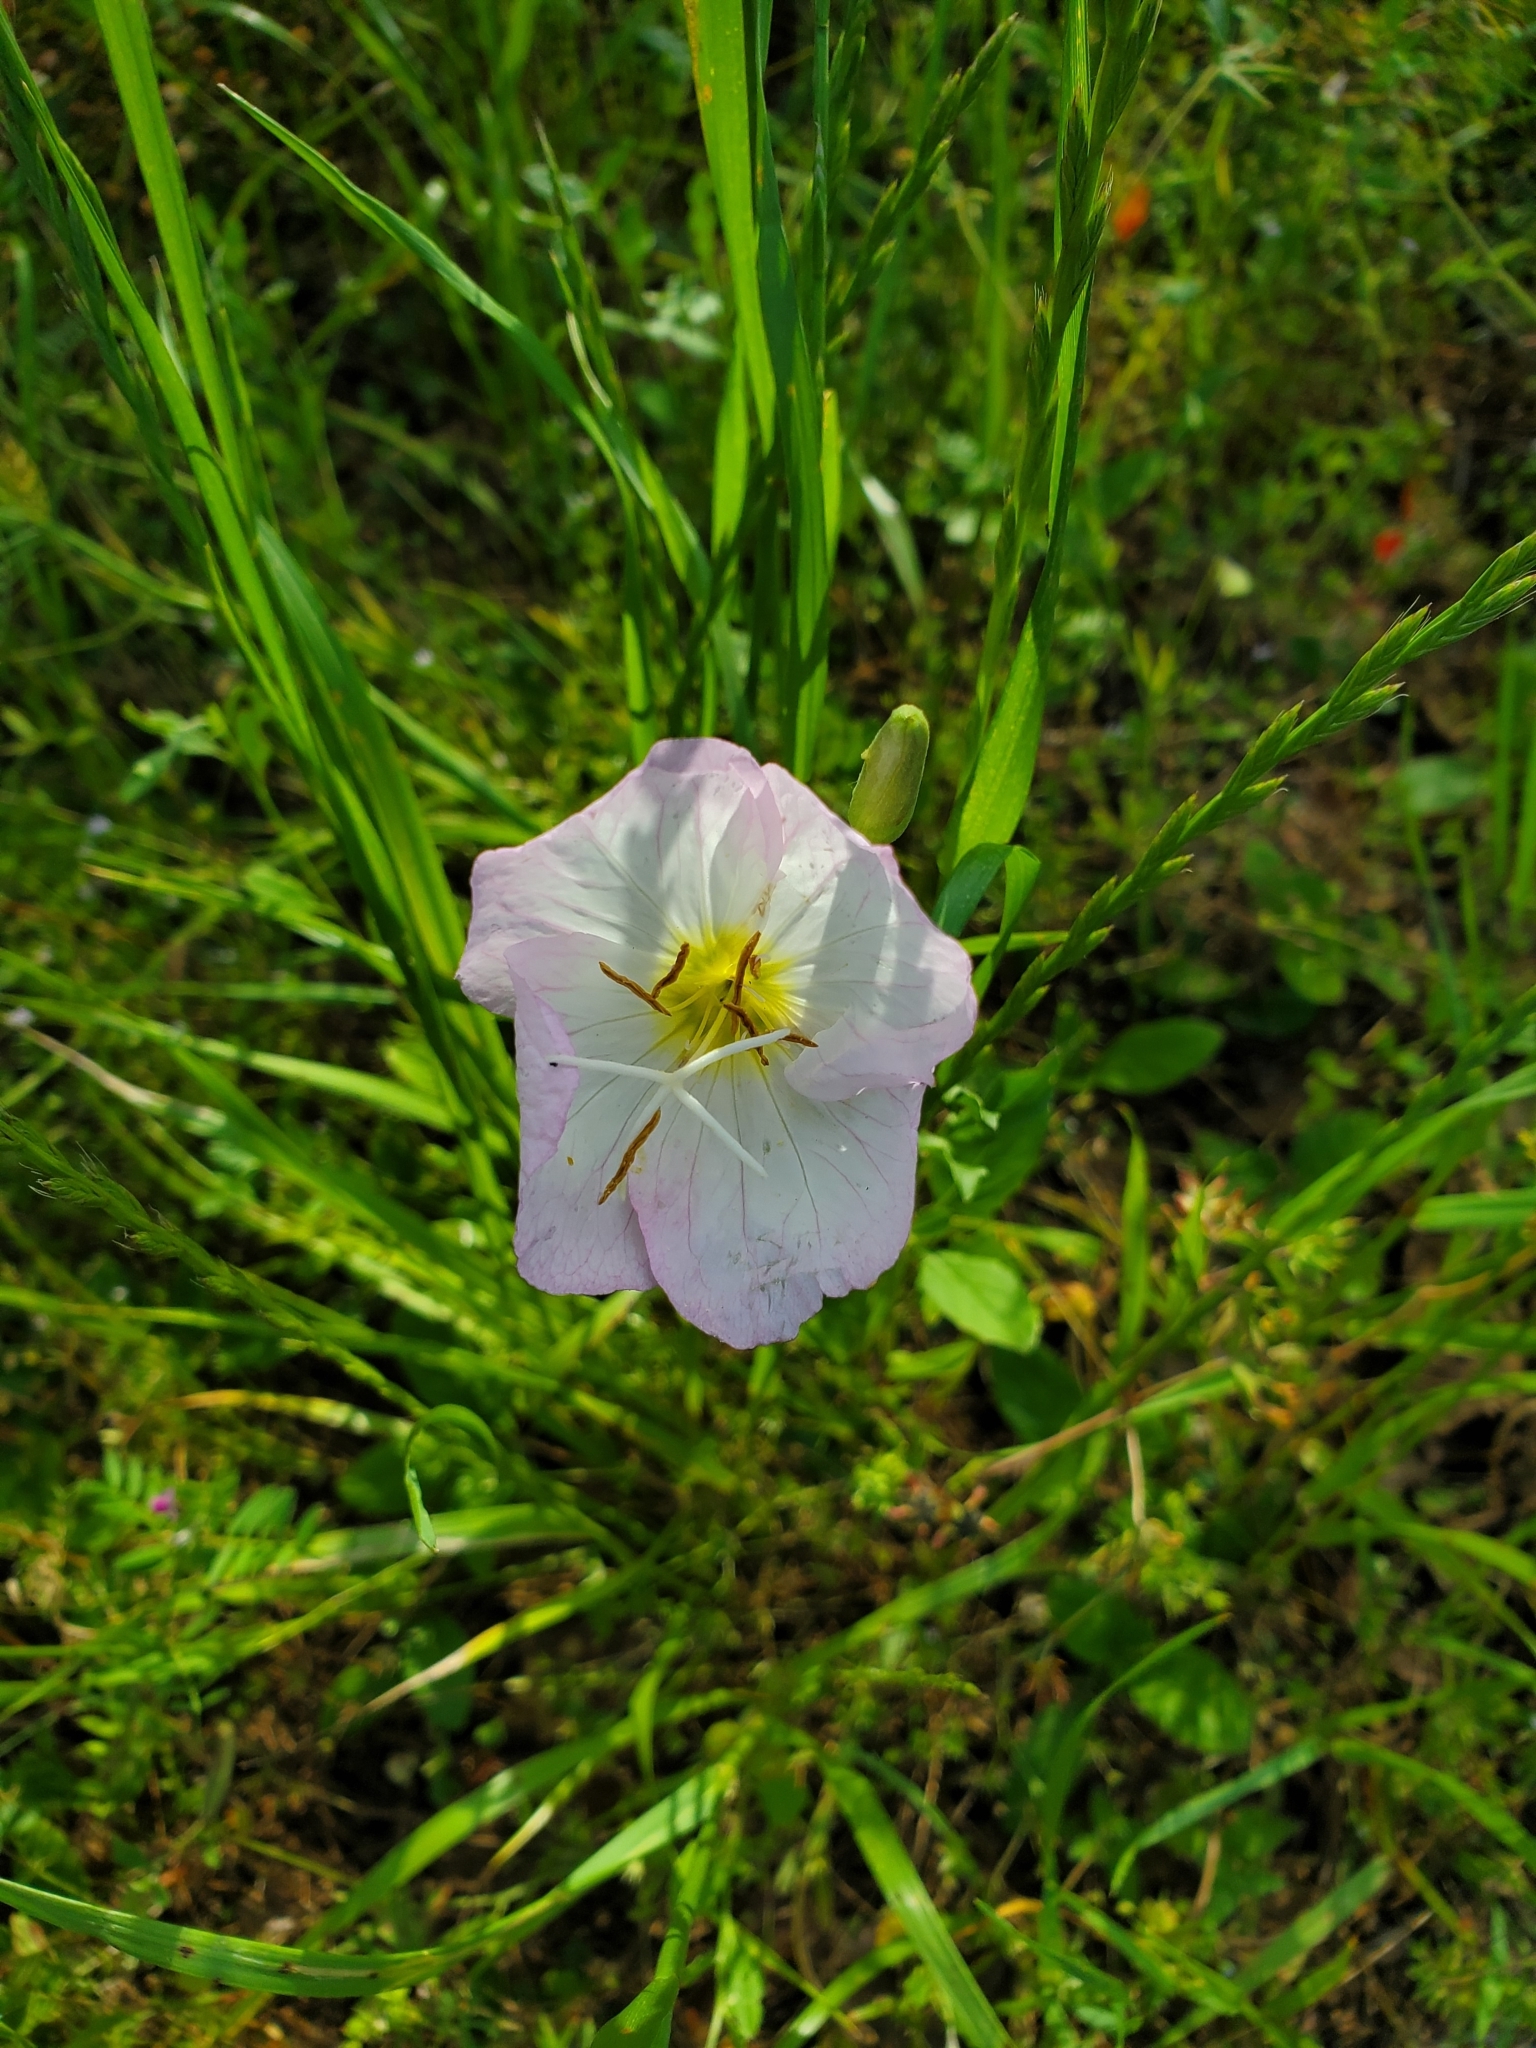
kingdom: Plantae
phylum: Tracheophyta
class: Magnoliopsida
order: Myrtales
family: Onagraceae
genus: Oenothera
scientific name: Oenothera speciosa
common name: White evening-primrose
